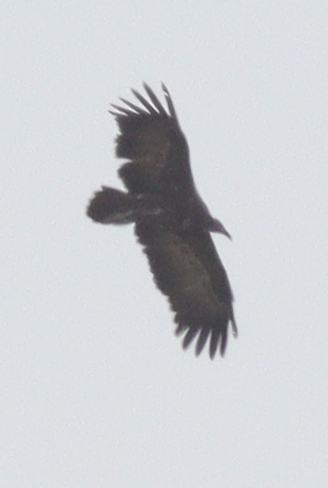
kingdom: Animalia
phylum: Chordata
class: Aves
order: Accipitriformes
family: Accipitridae
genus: Necrosyrtes
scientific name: Necrosyrtes monachus
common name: Hooded vulture
